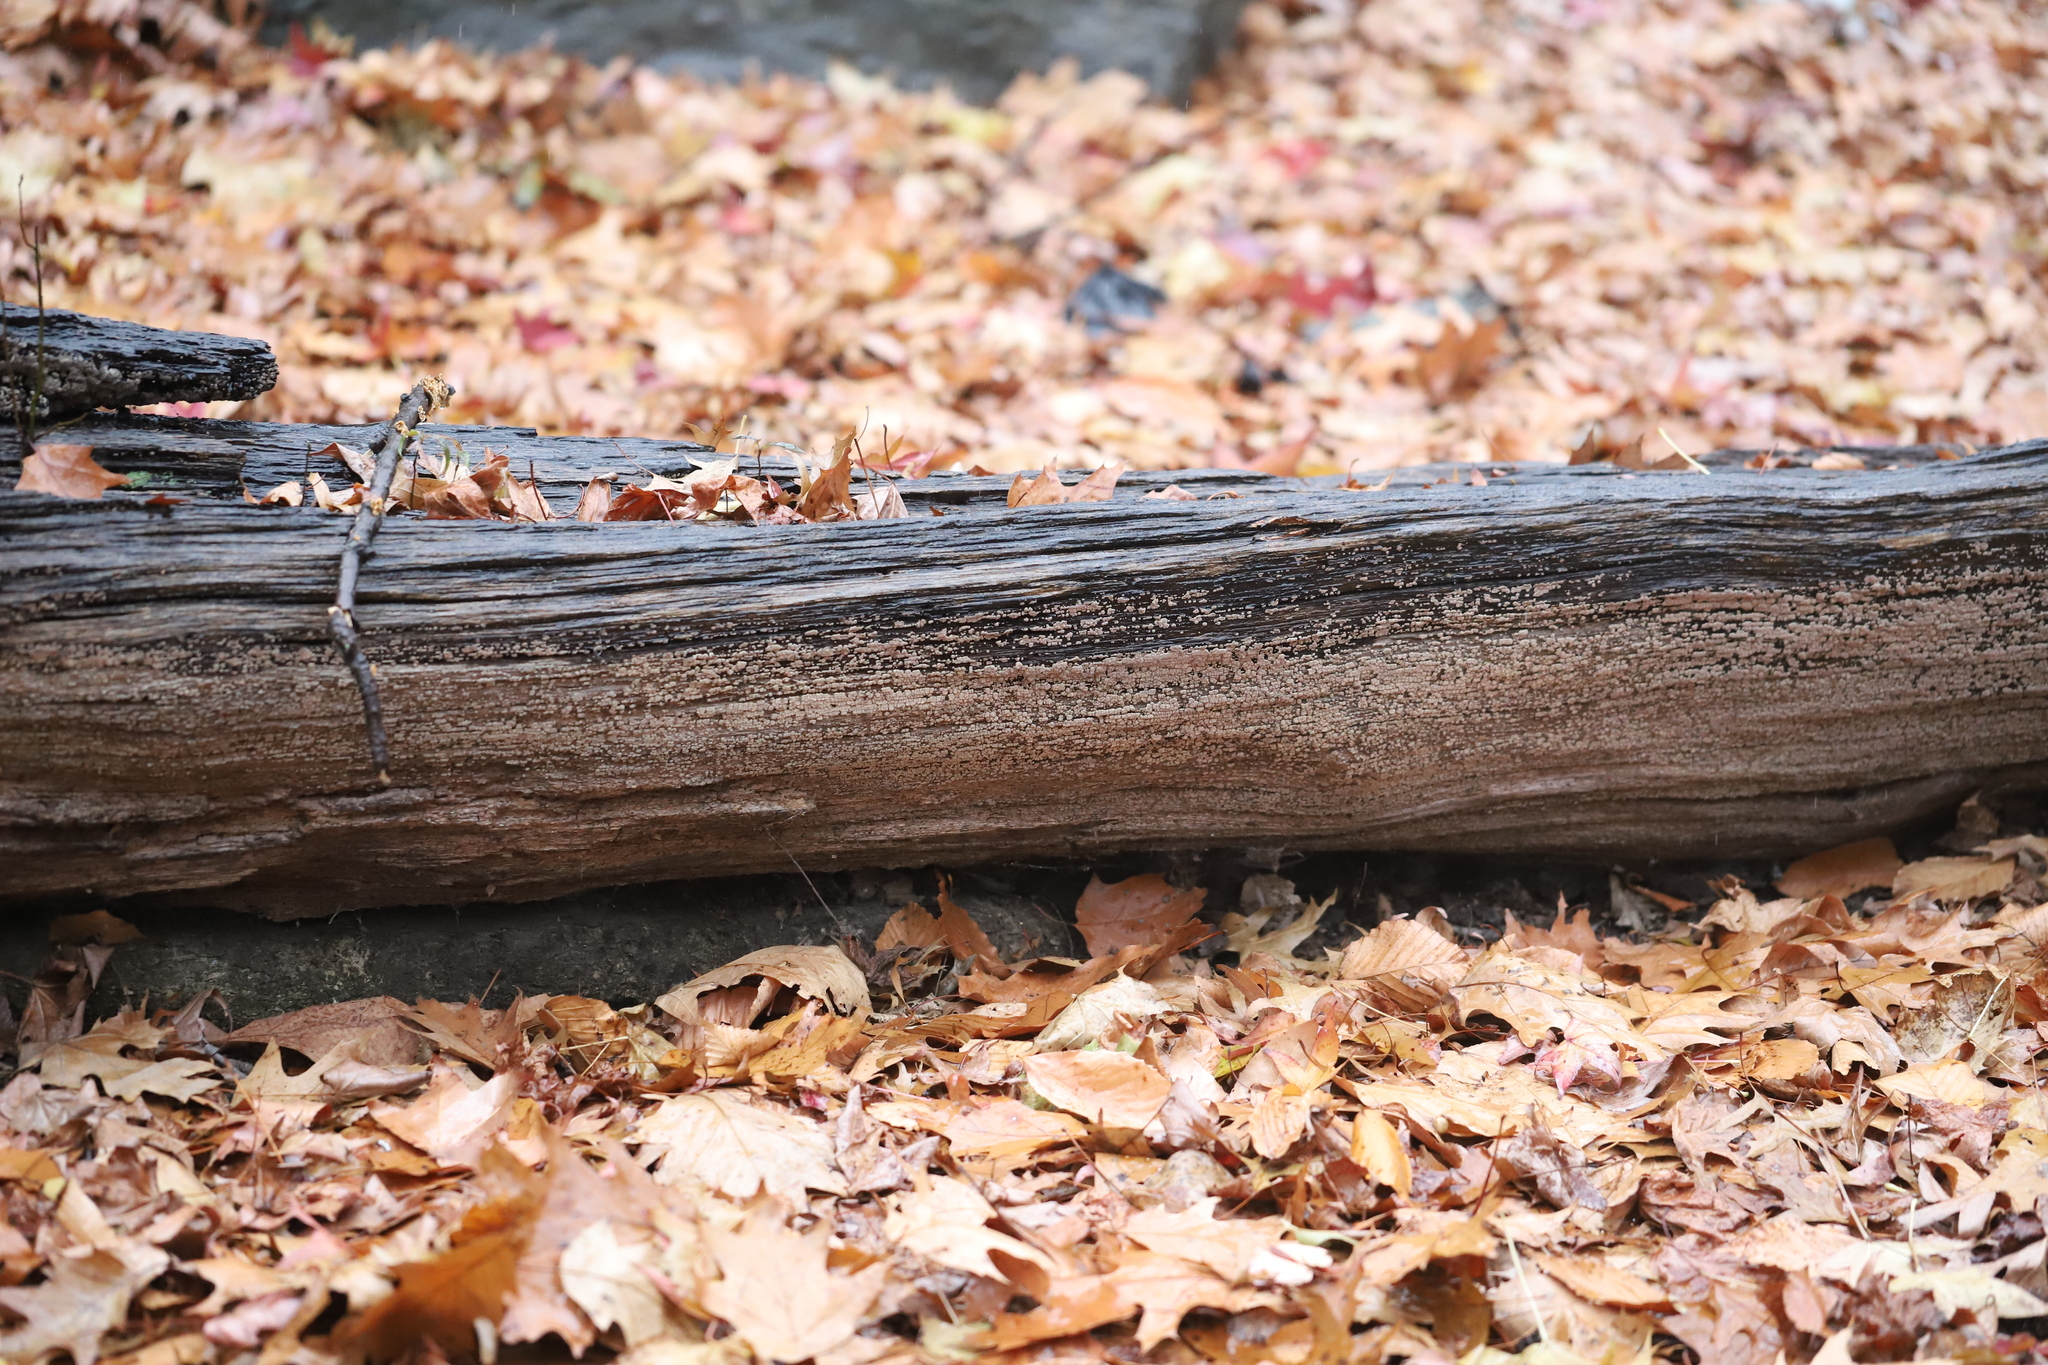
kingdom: Fungi
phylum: Basidiomycota
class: Agaricomycetes
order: Russulales
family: Stereaceae
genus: Xylobolus
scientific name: Xylobolus frustulatus
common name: Ceramic parchment
